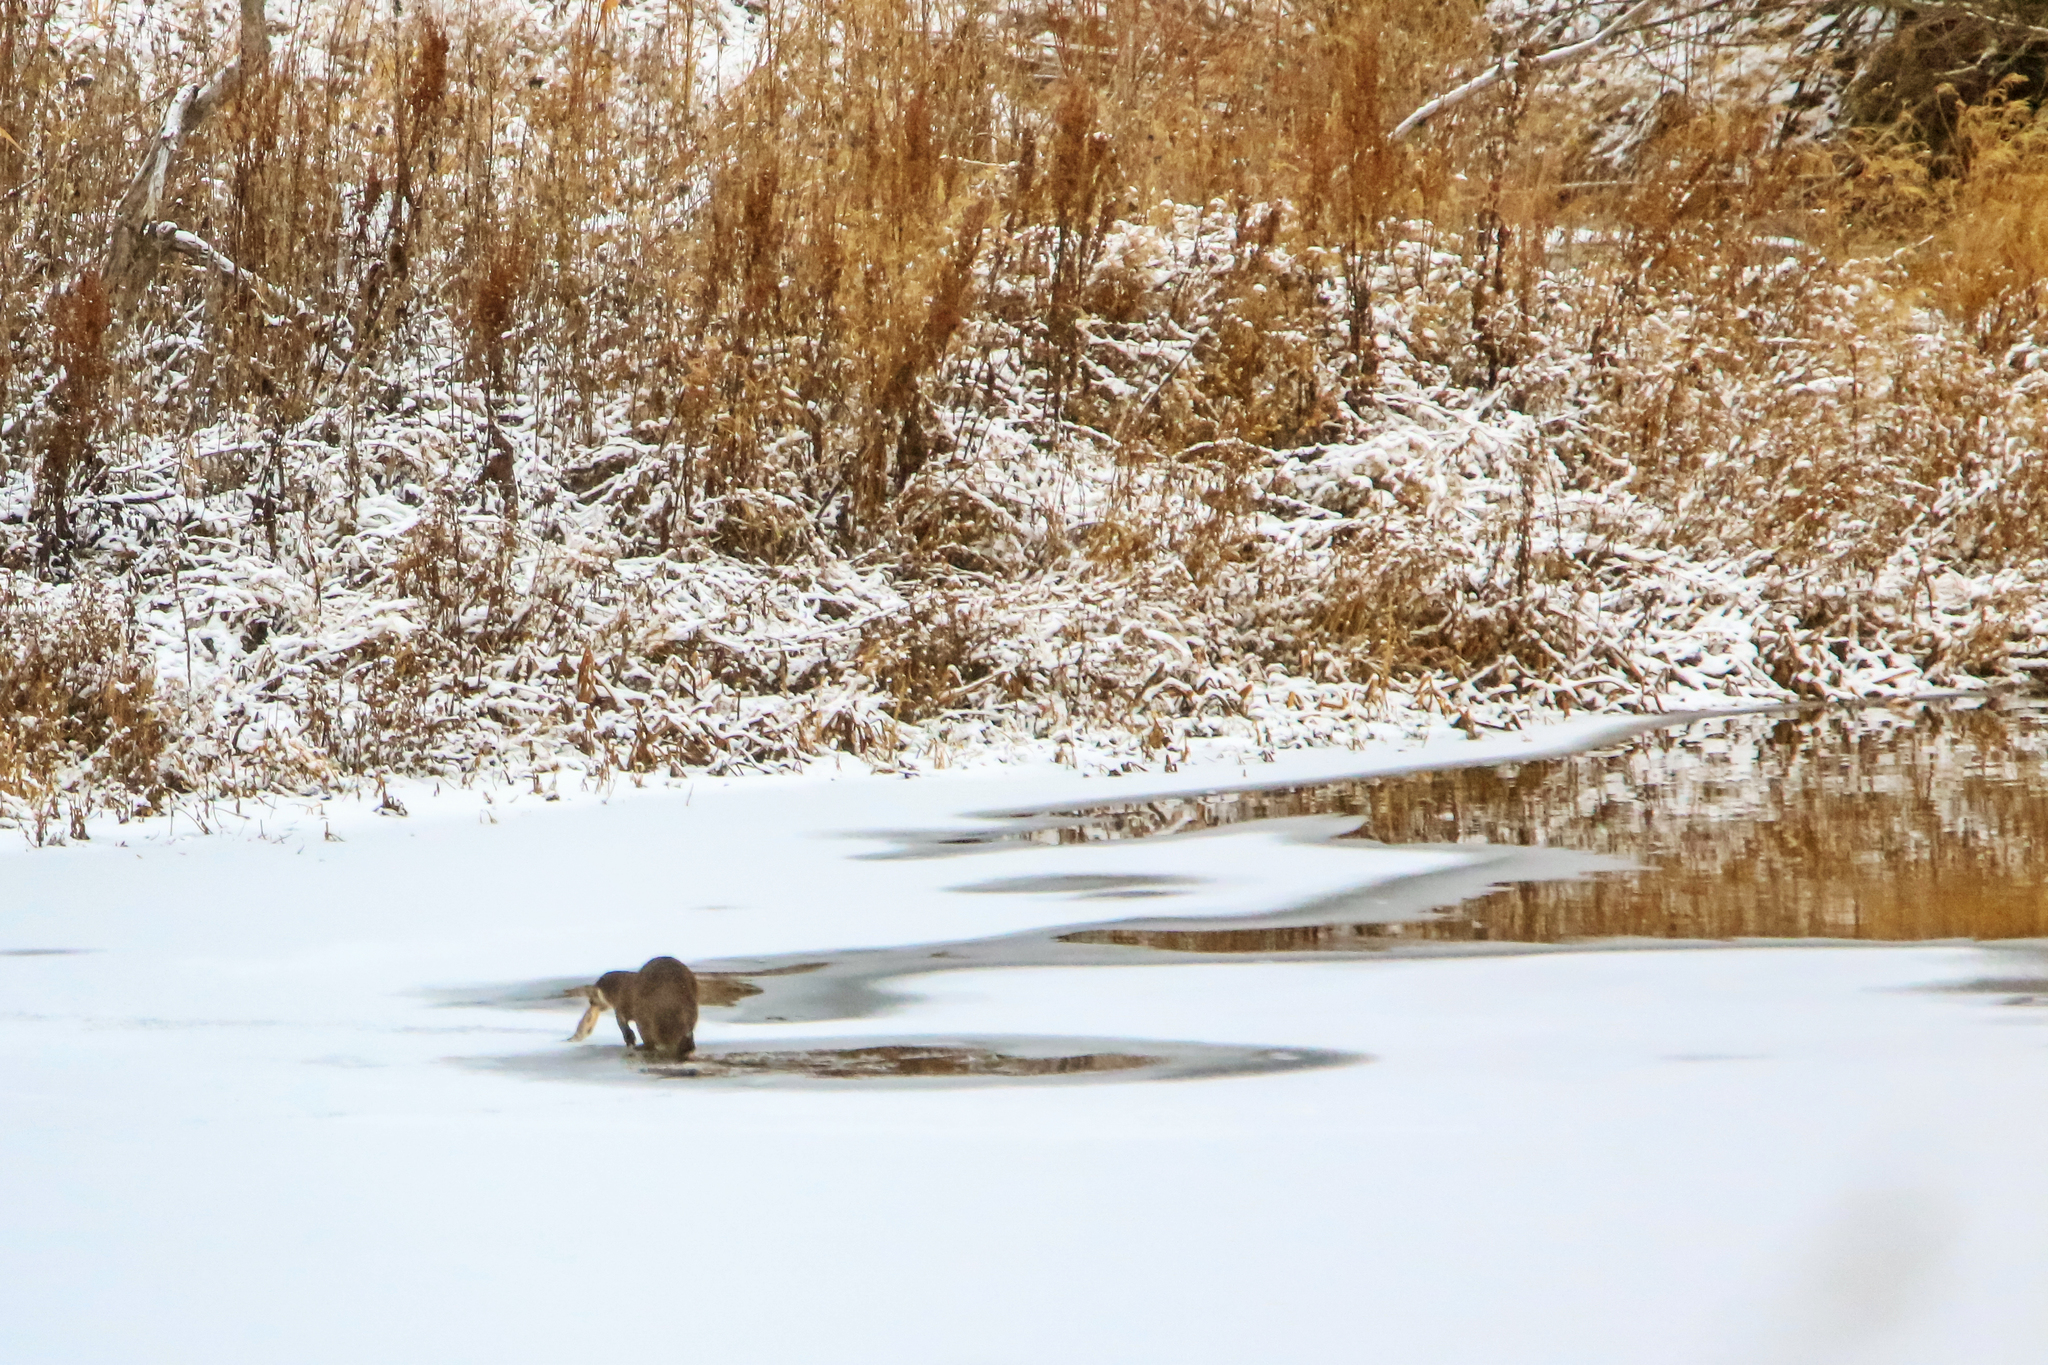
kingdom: Animalia
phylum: Chordata
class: Mammalia
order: Carnivora
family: Mustelidae
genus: Lutra
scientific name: Lutra lutra
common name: European otter
